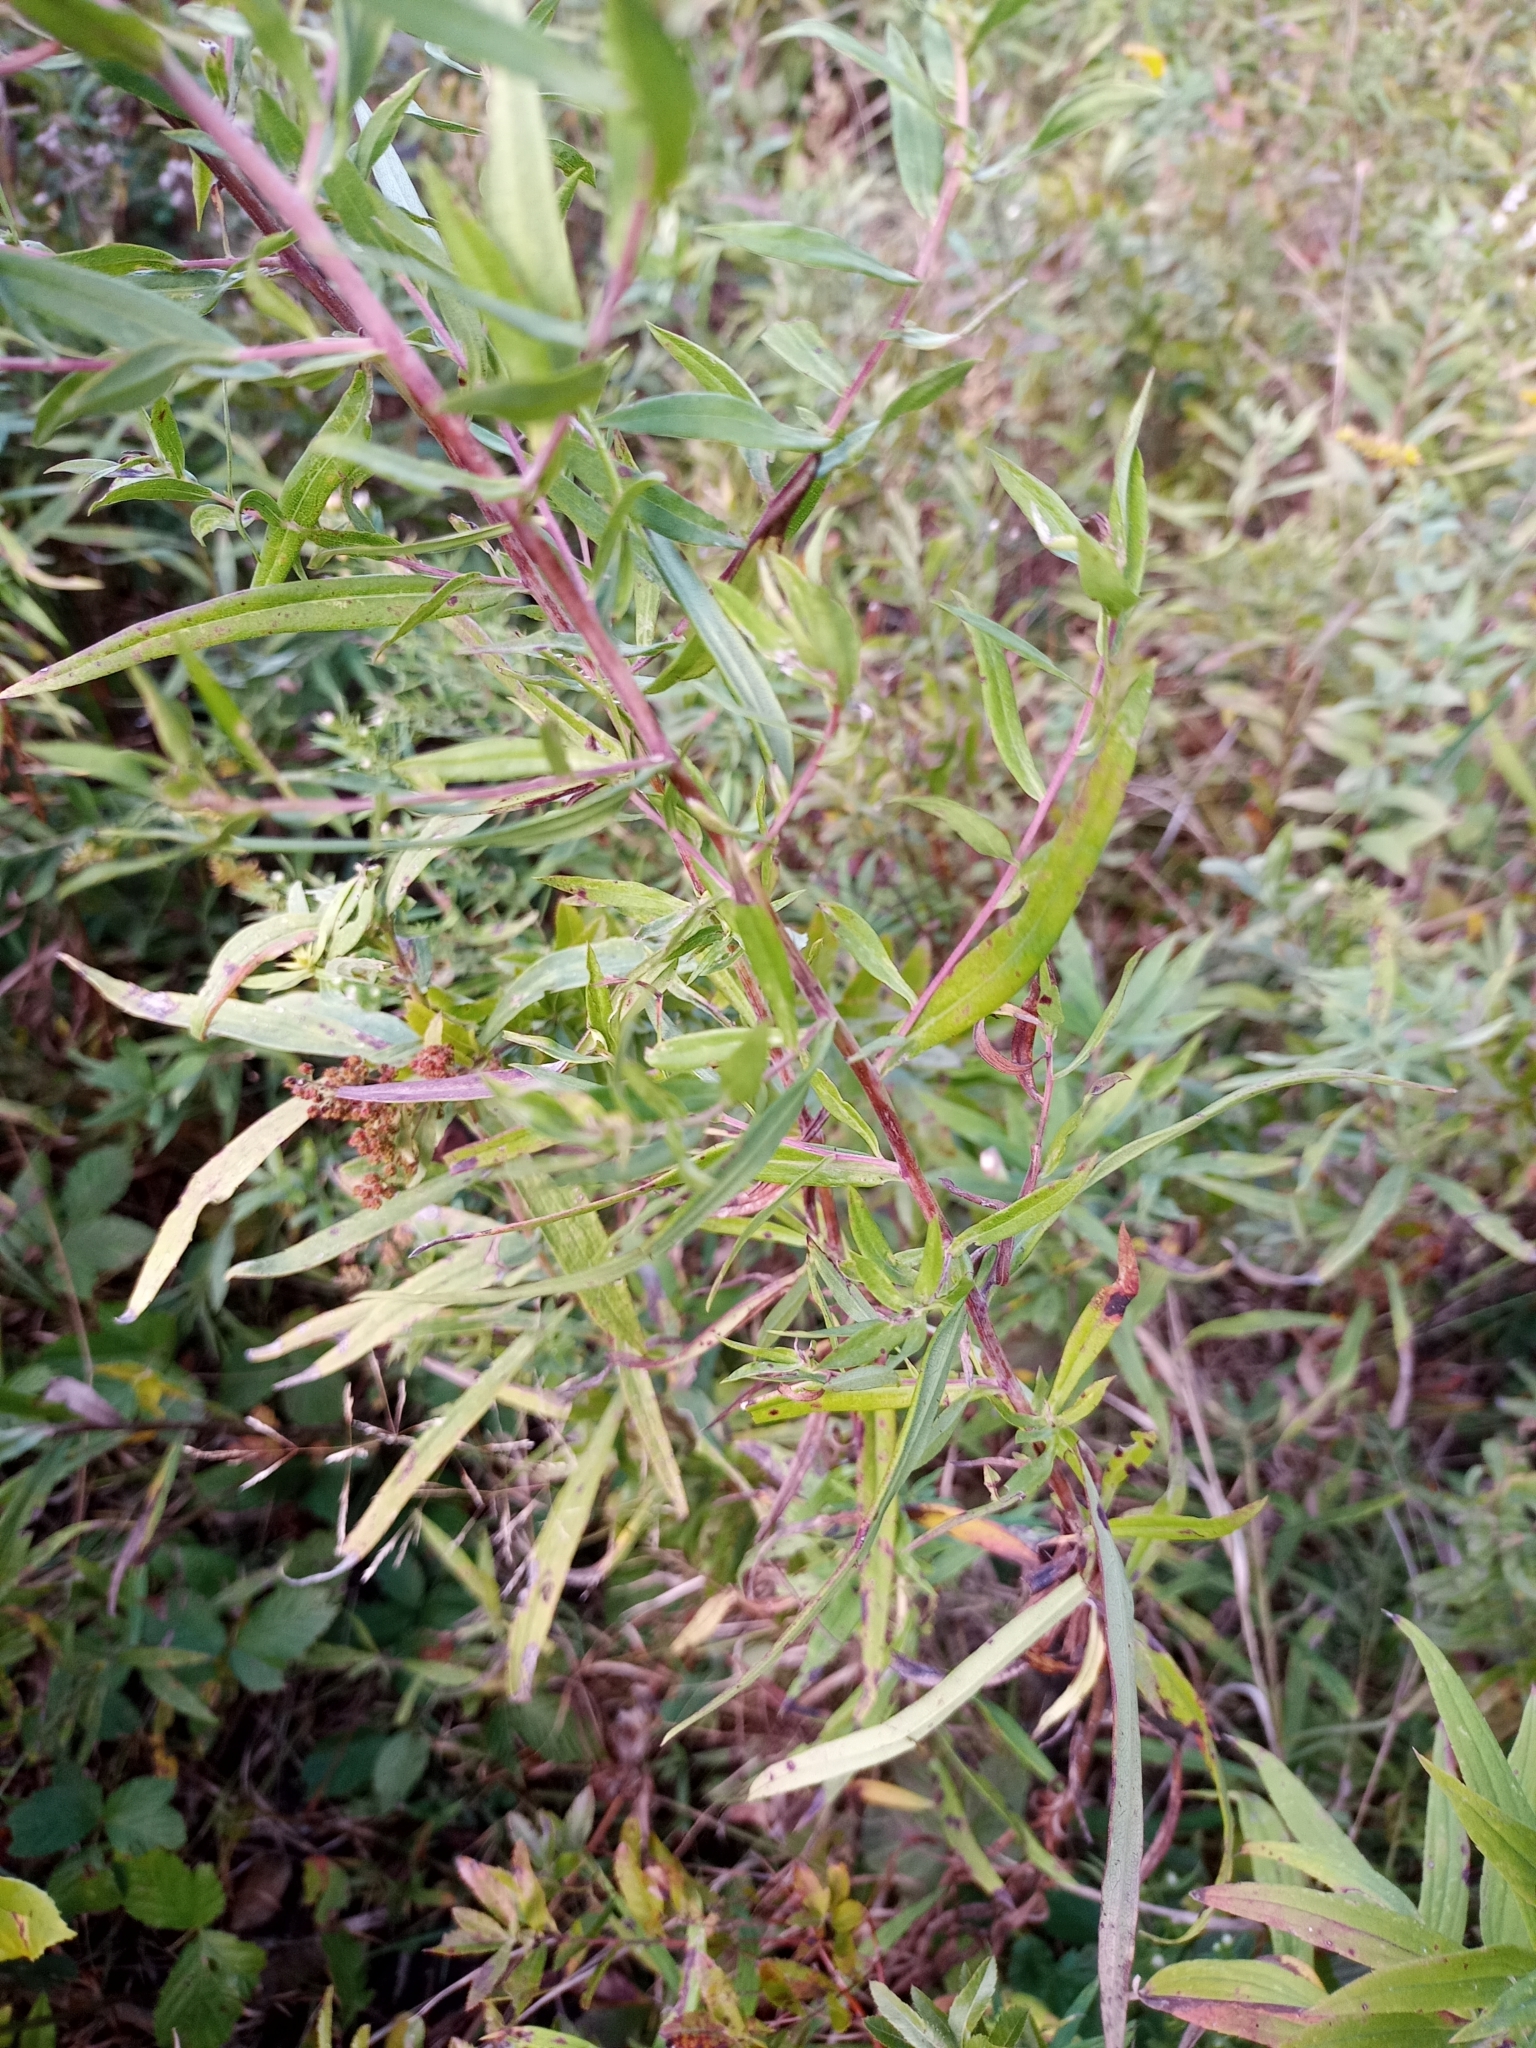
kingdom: Plantae
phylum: Tracheophyta
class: Magnoliopsida
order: Asterales
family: Asteraceae
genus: Symphyotrichum
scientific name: Symphyotrichum praealtum
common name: Willow aster
